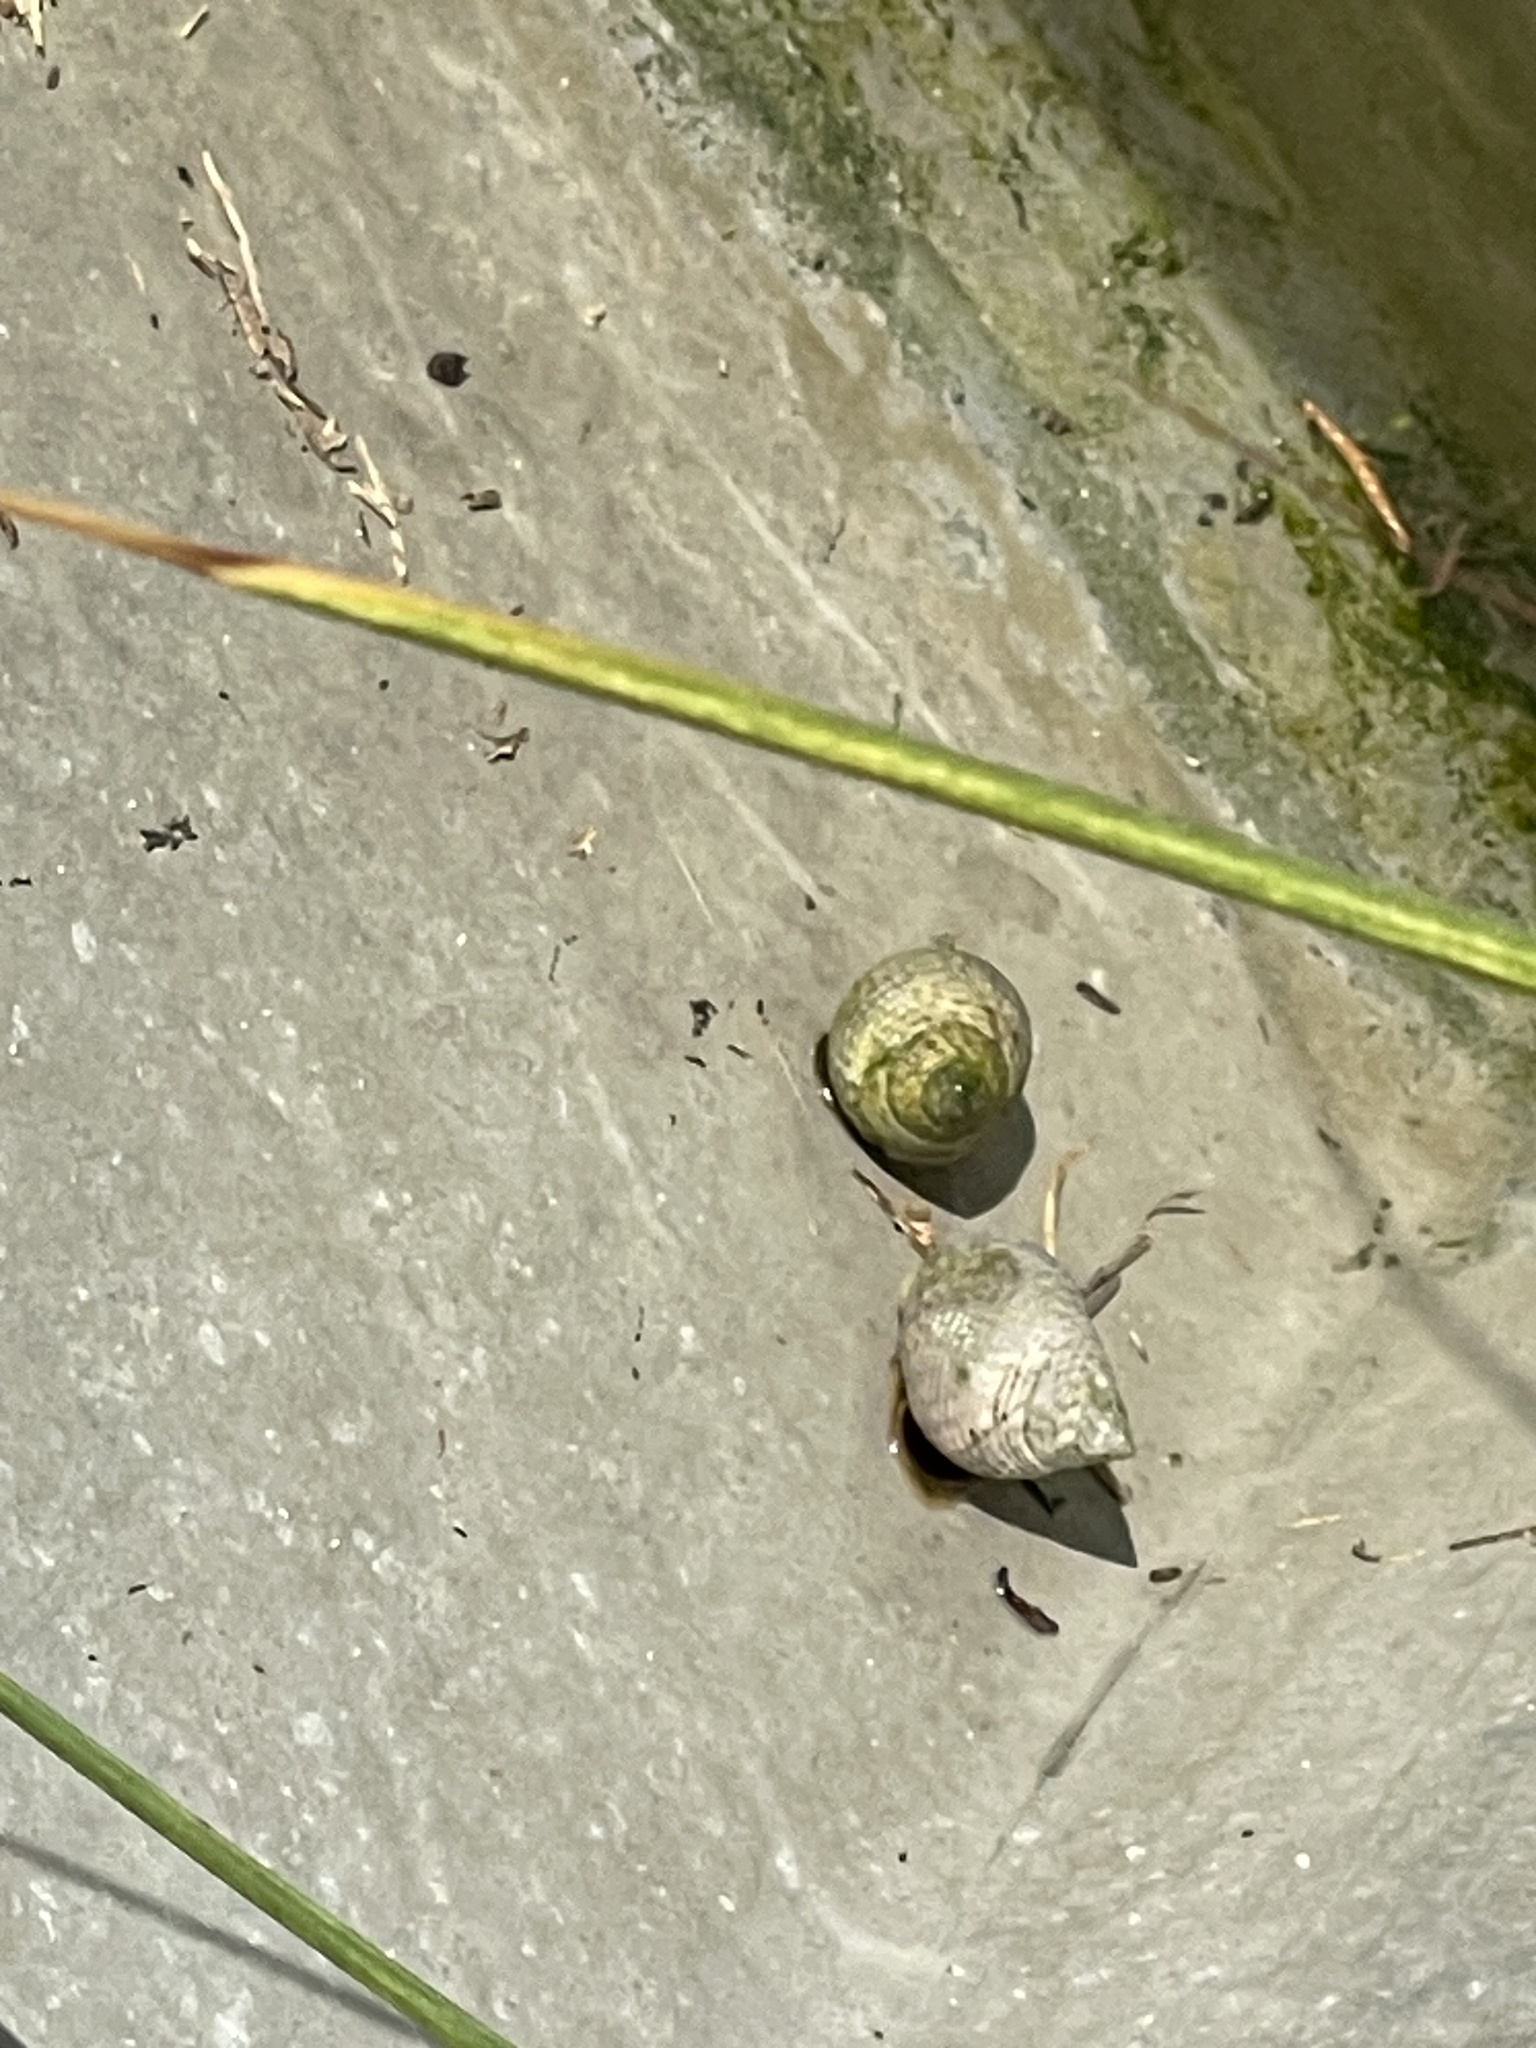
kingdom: Animalia
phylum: Mollusca
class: Gastropoda
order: Littorinimorpha
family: Littorinidae
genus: Littoraria
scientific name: Littoraria irrorata
